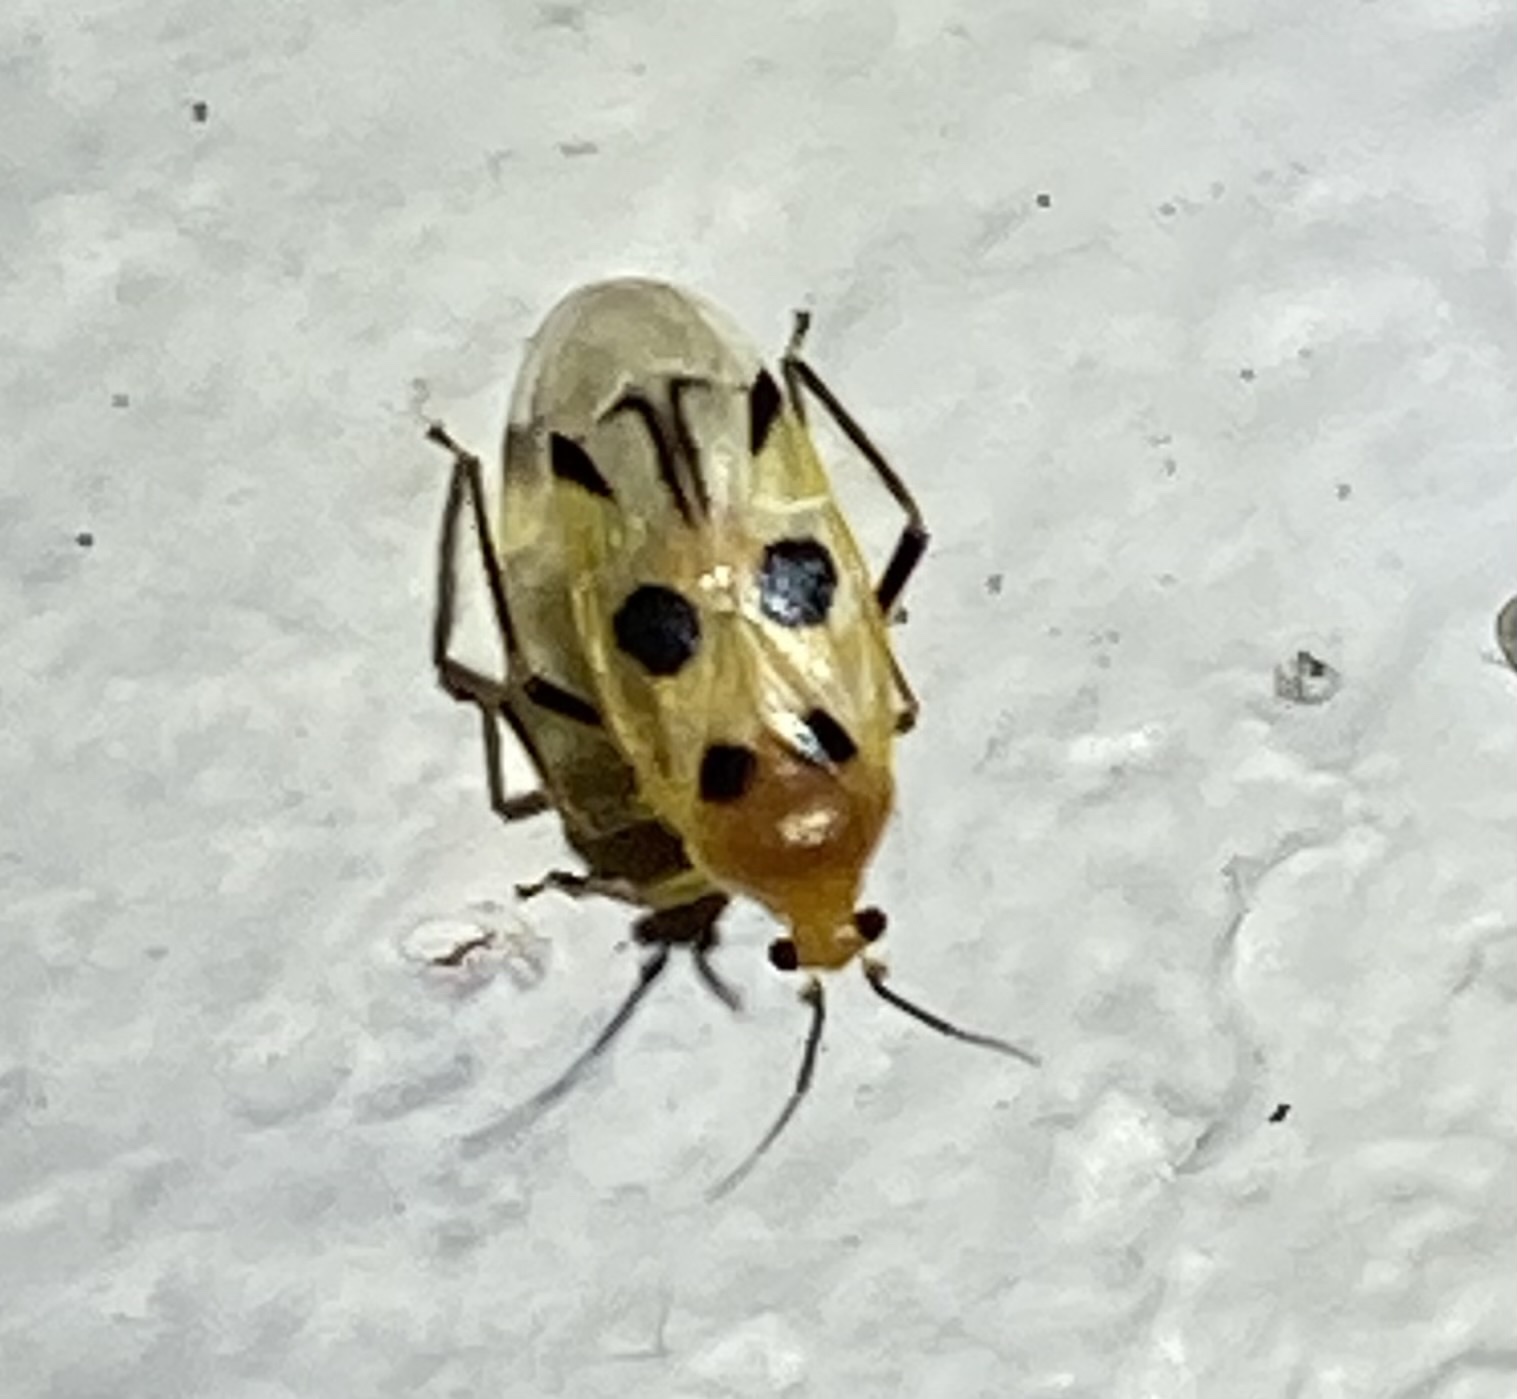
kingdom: Animalia
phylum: Arthropoda
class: Insecta
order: Hemiptera
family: Miridae
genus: Odontocerocoris
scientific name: Odontocerocoris ornandus
